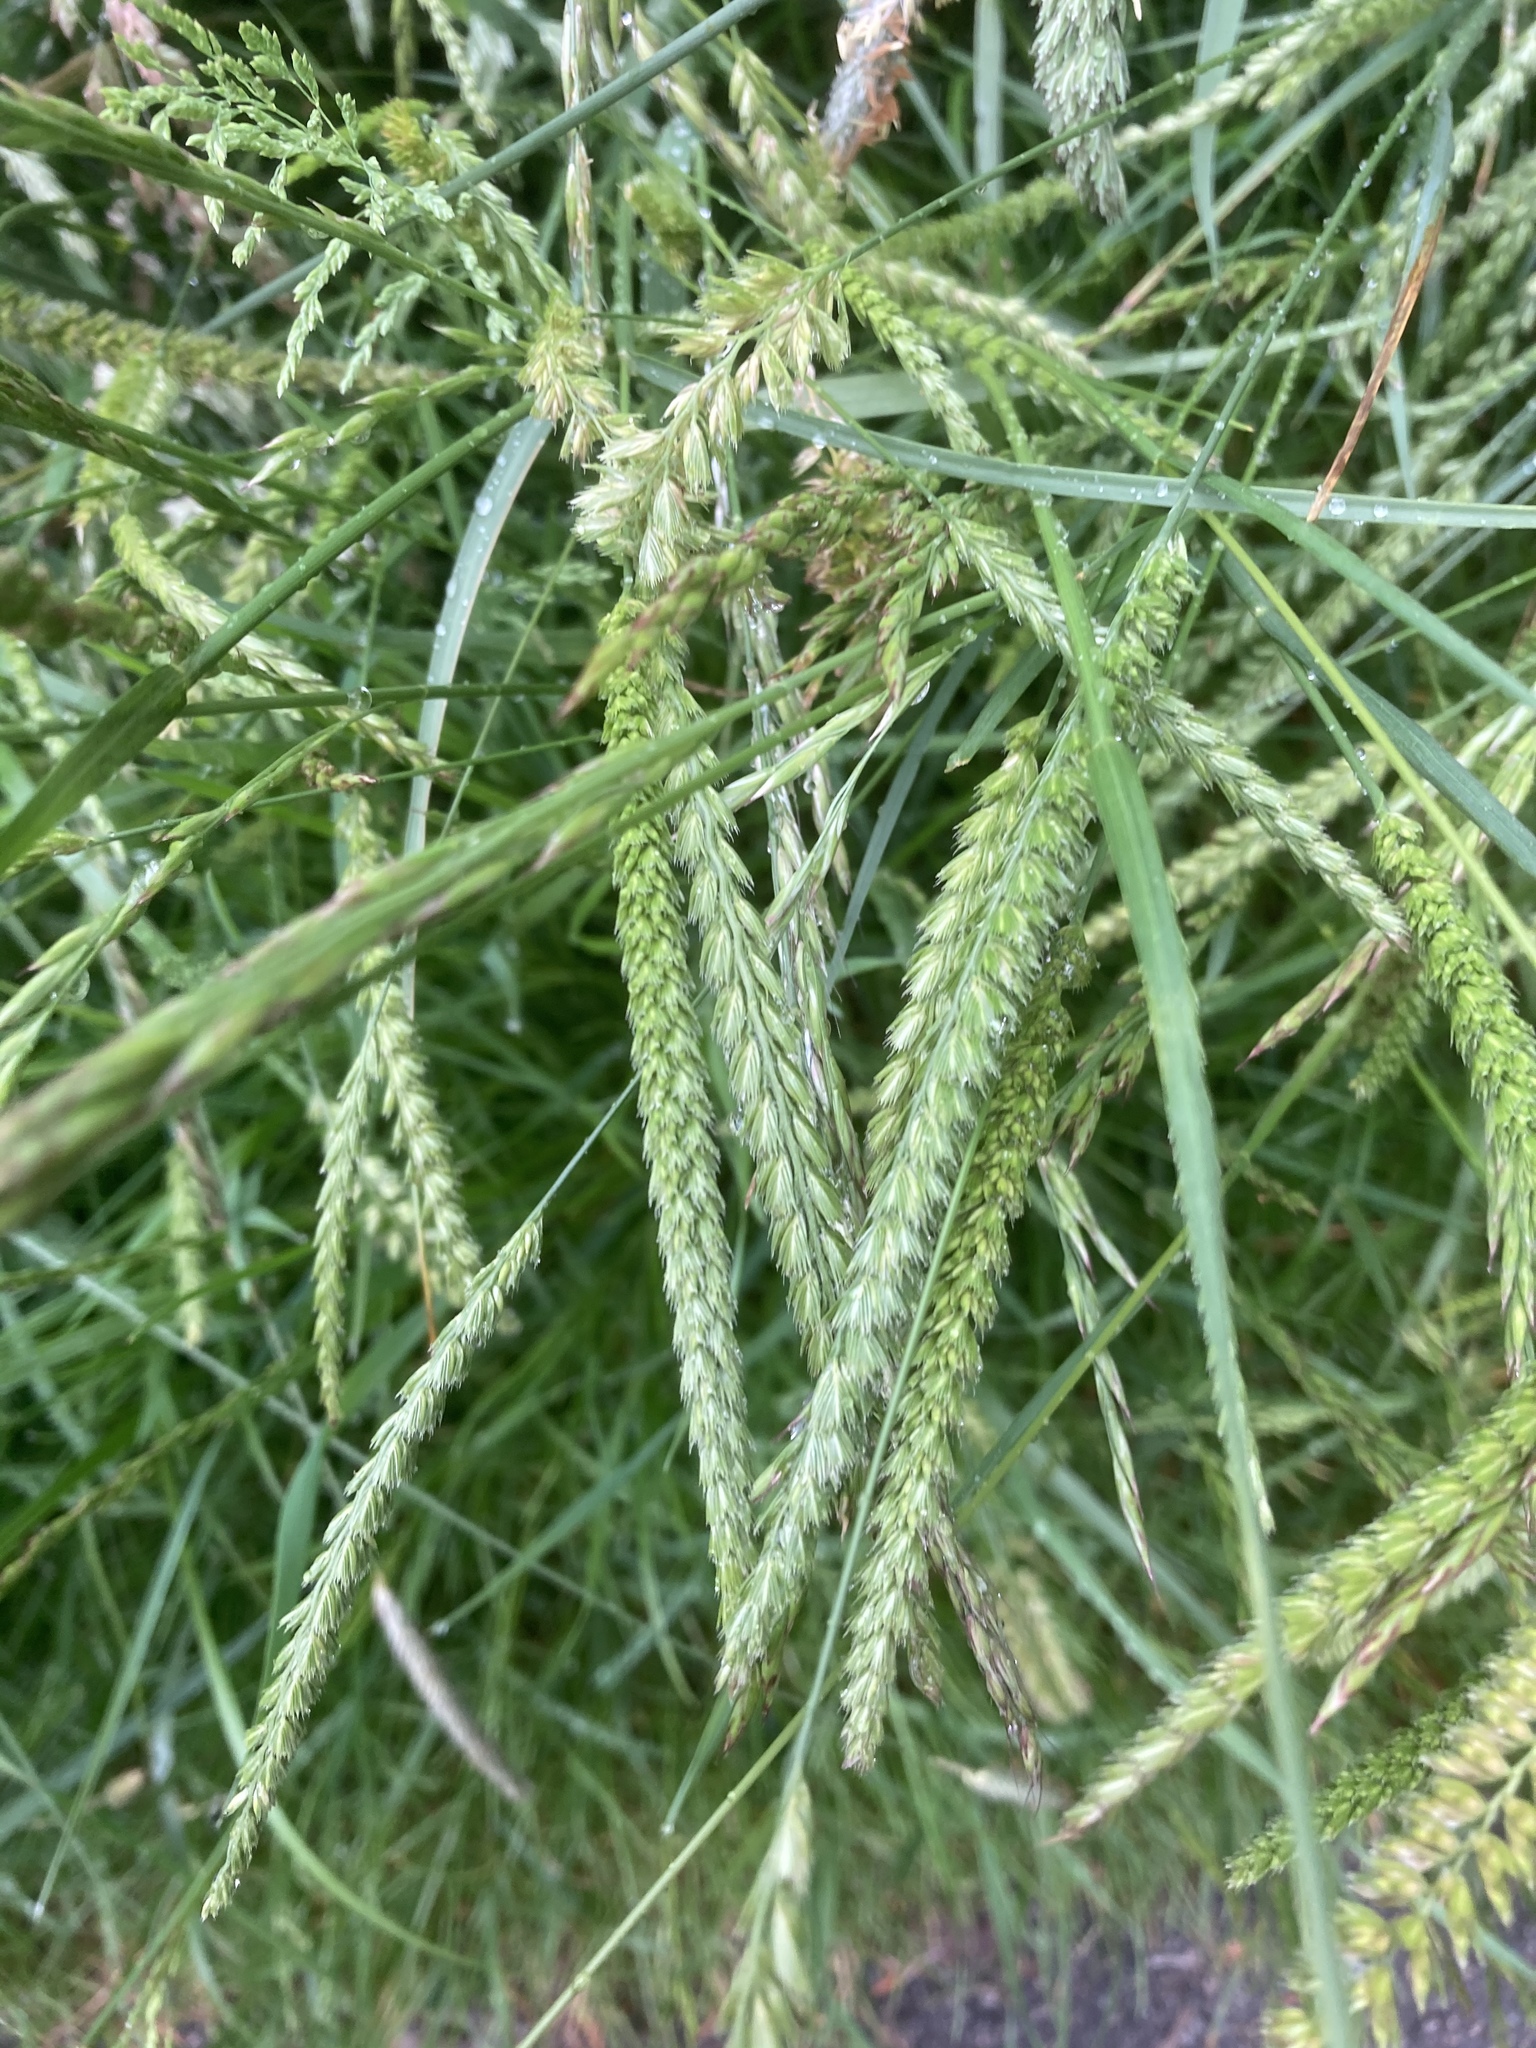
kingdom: Plantae
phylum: Tracheophyta
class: Liliopsida
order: Poales
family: Poaceae
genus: Cynosurus
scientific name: Cynosurus cristatus
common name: Crested dog's-tail
